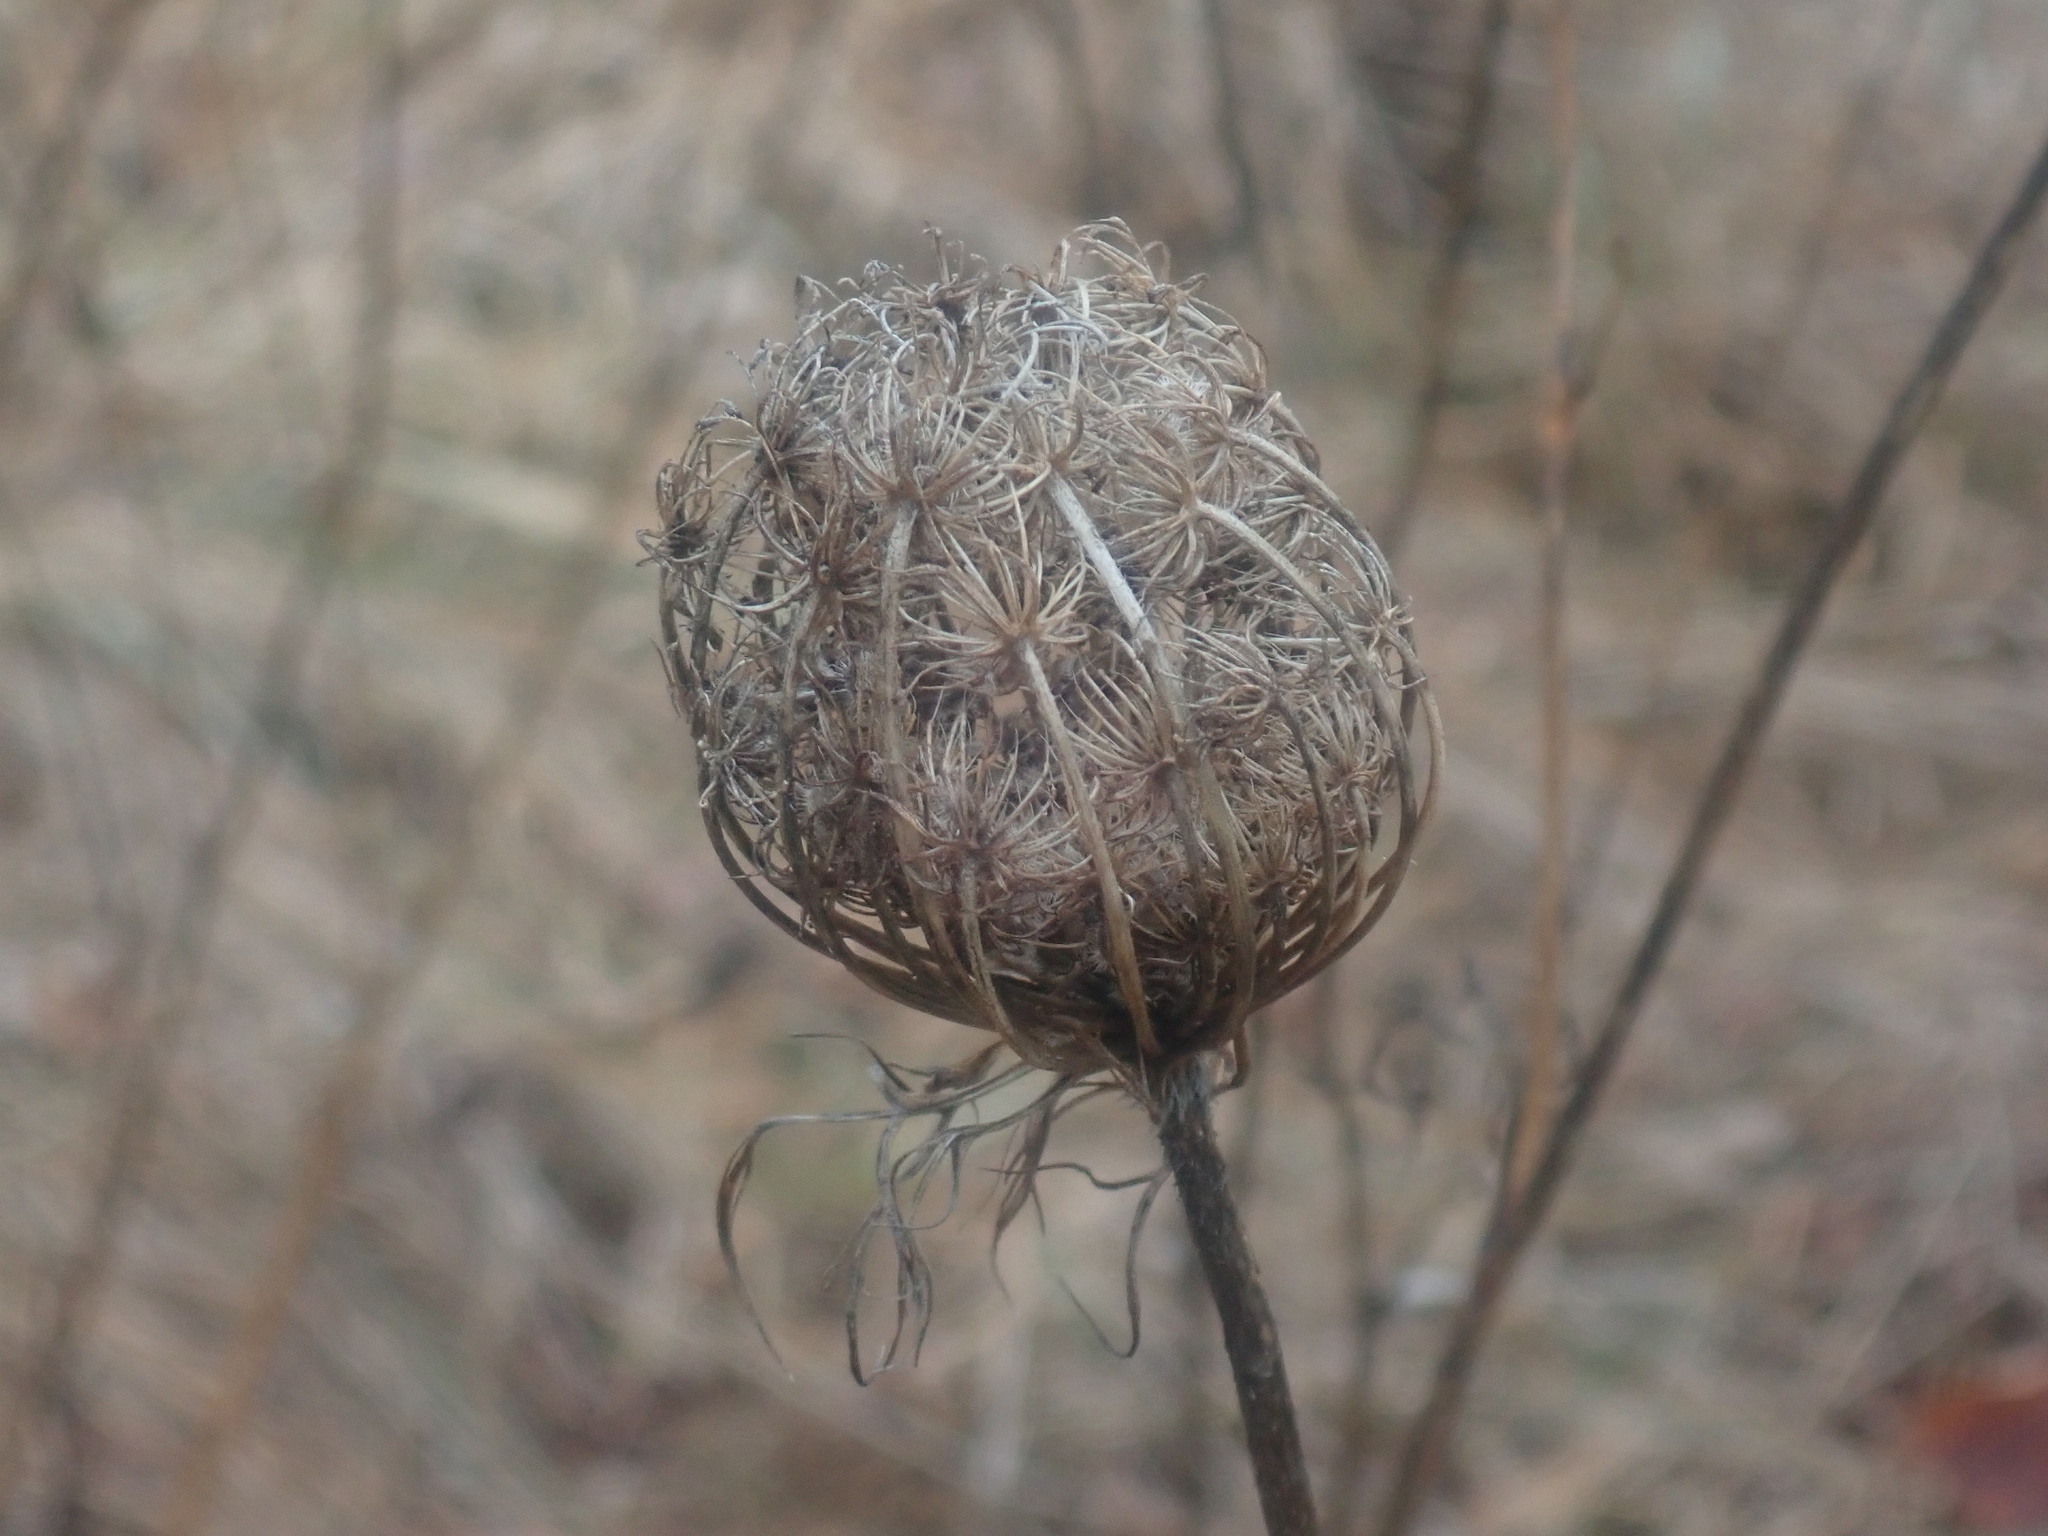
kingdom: Plantae
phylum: Tracheophyta
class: Magnoliopsida
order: Apiales
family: Apiaceae
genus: Daucus
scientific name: Daucus carota
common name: Wild carrot
